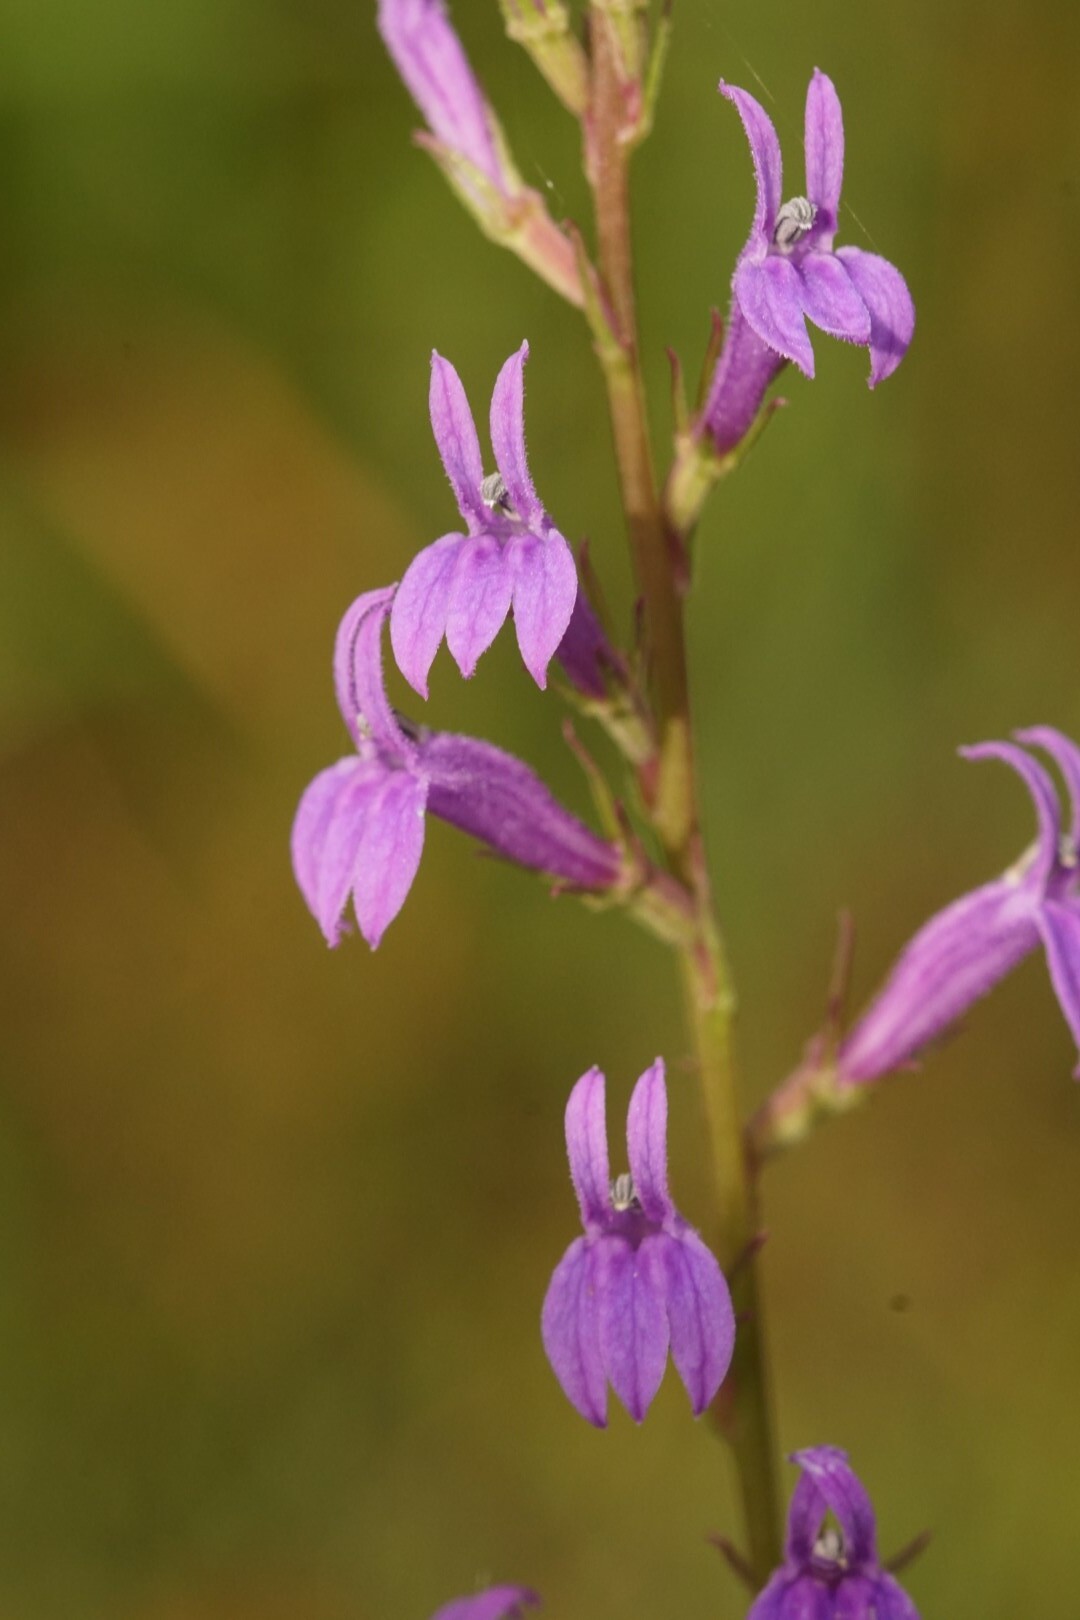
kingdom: Plantae
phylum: Tracheophyta
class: Magnoliopsida
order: Asterales
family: Campanulaceae
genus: Lobelia
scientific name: Lobelia urens
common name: Heath lobelia
